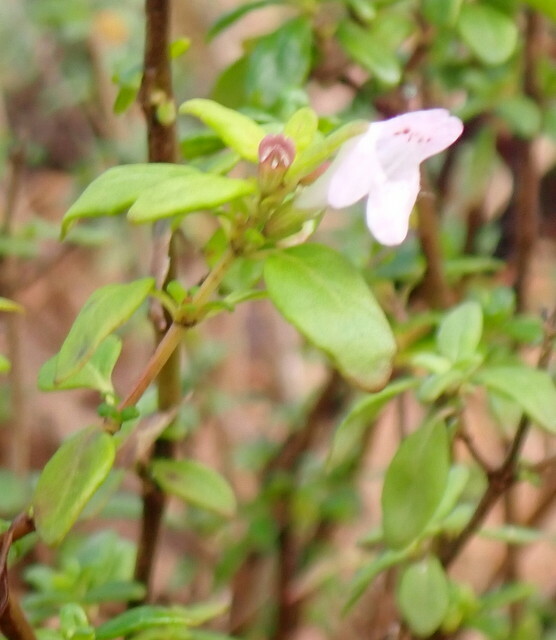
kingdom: Plantae
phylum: Tracheophyta
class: Magnoliopsida
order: Lamiales
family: Lamiaceae
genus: Clinopodium
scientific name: Clinopodium carolinianum
